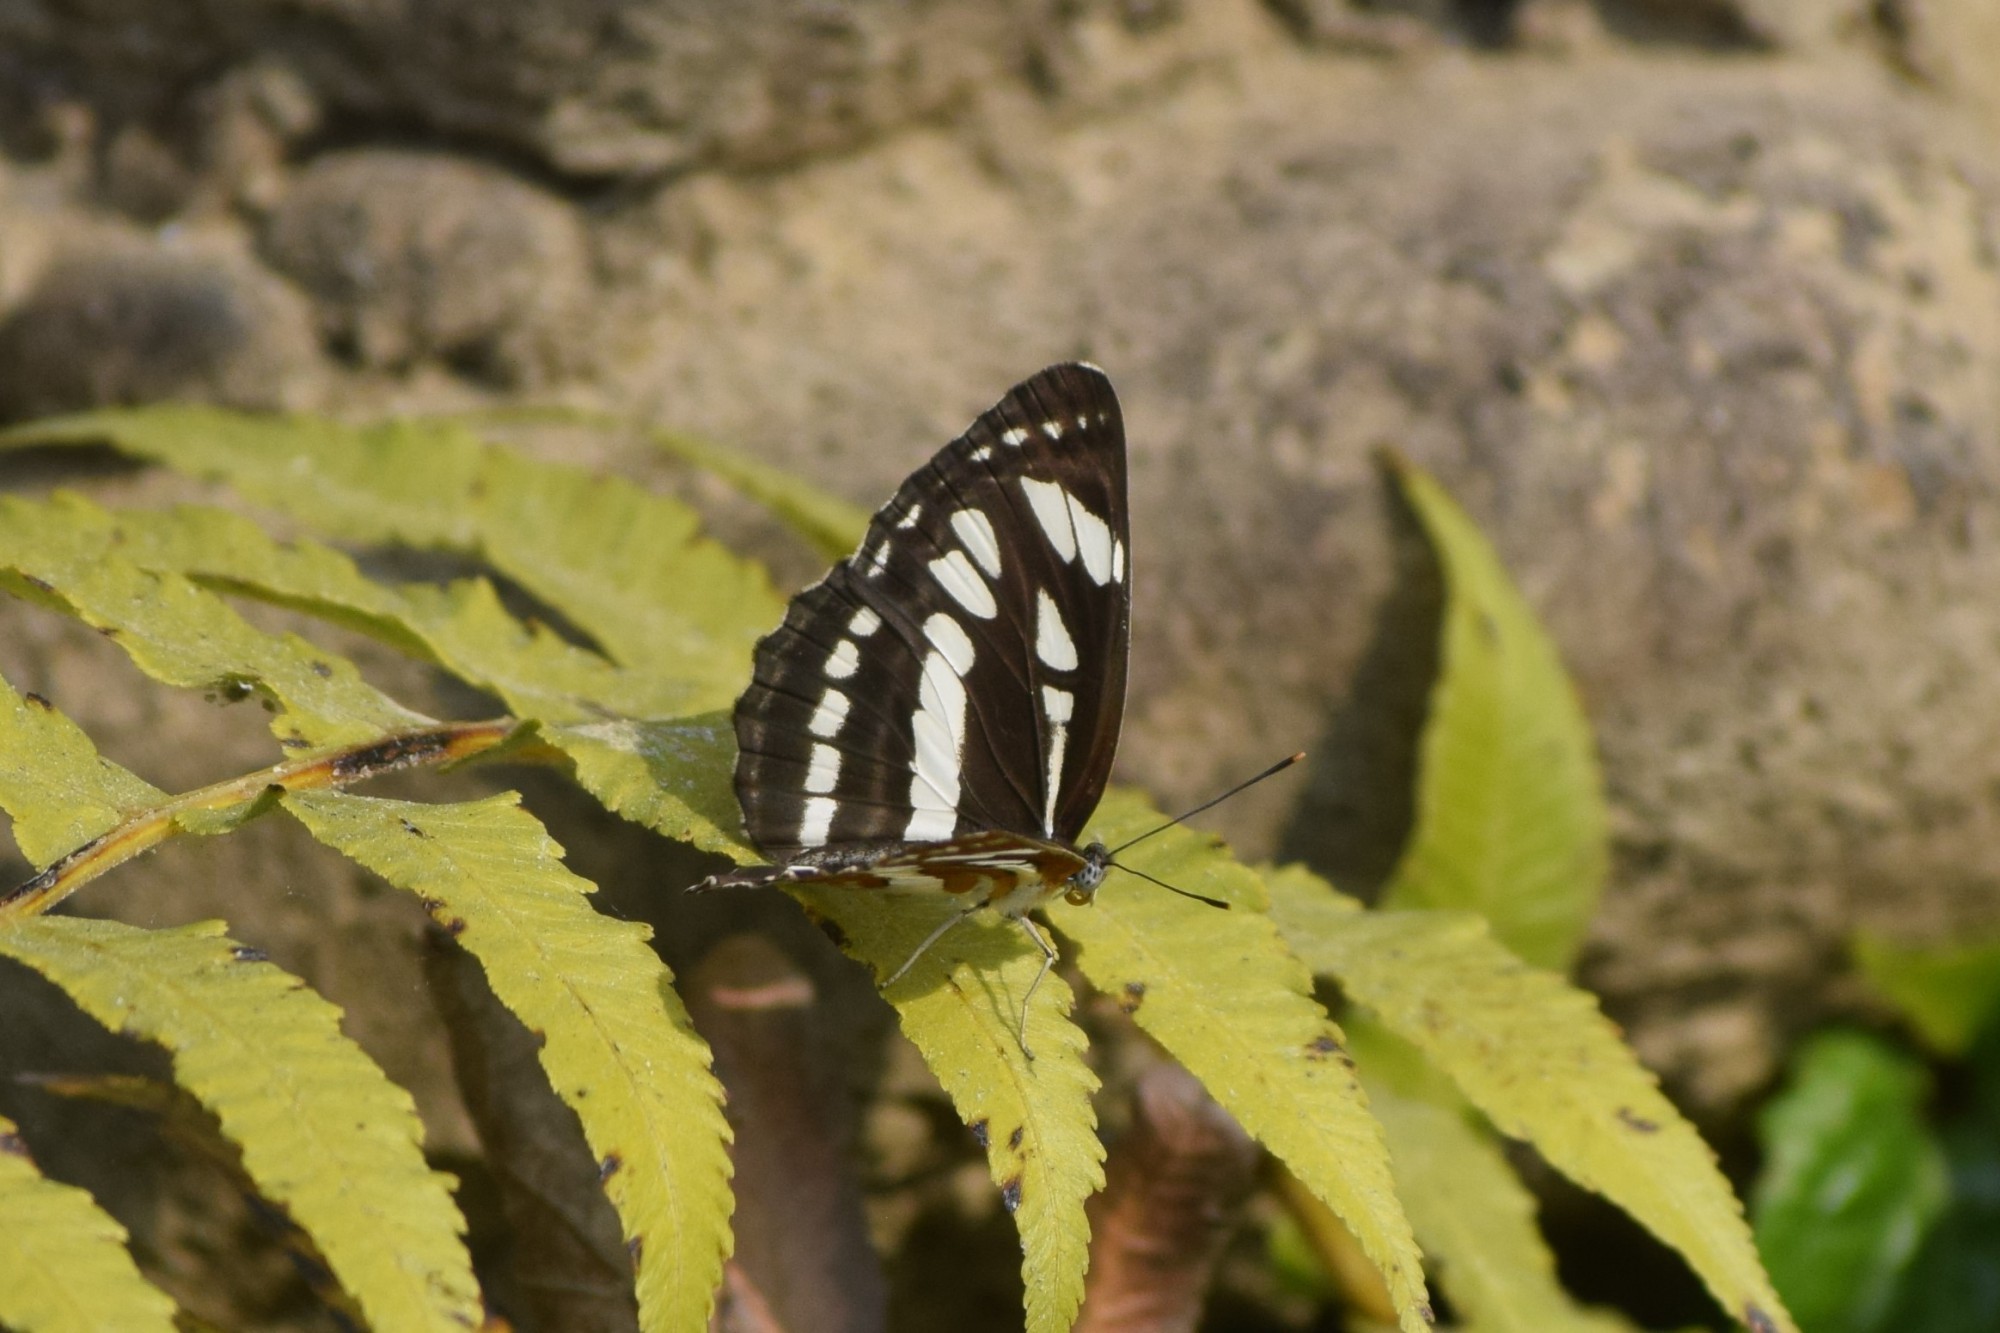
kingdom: Animalia
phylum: Arthropoda
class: Insecta
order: Lepidoptera
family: Nymphalidae
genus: Neptis
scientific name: Neptis hylas
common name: Common sailer
